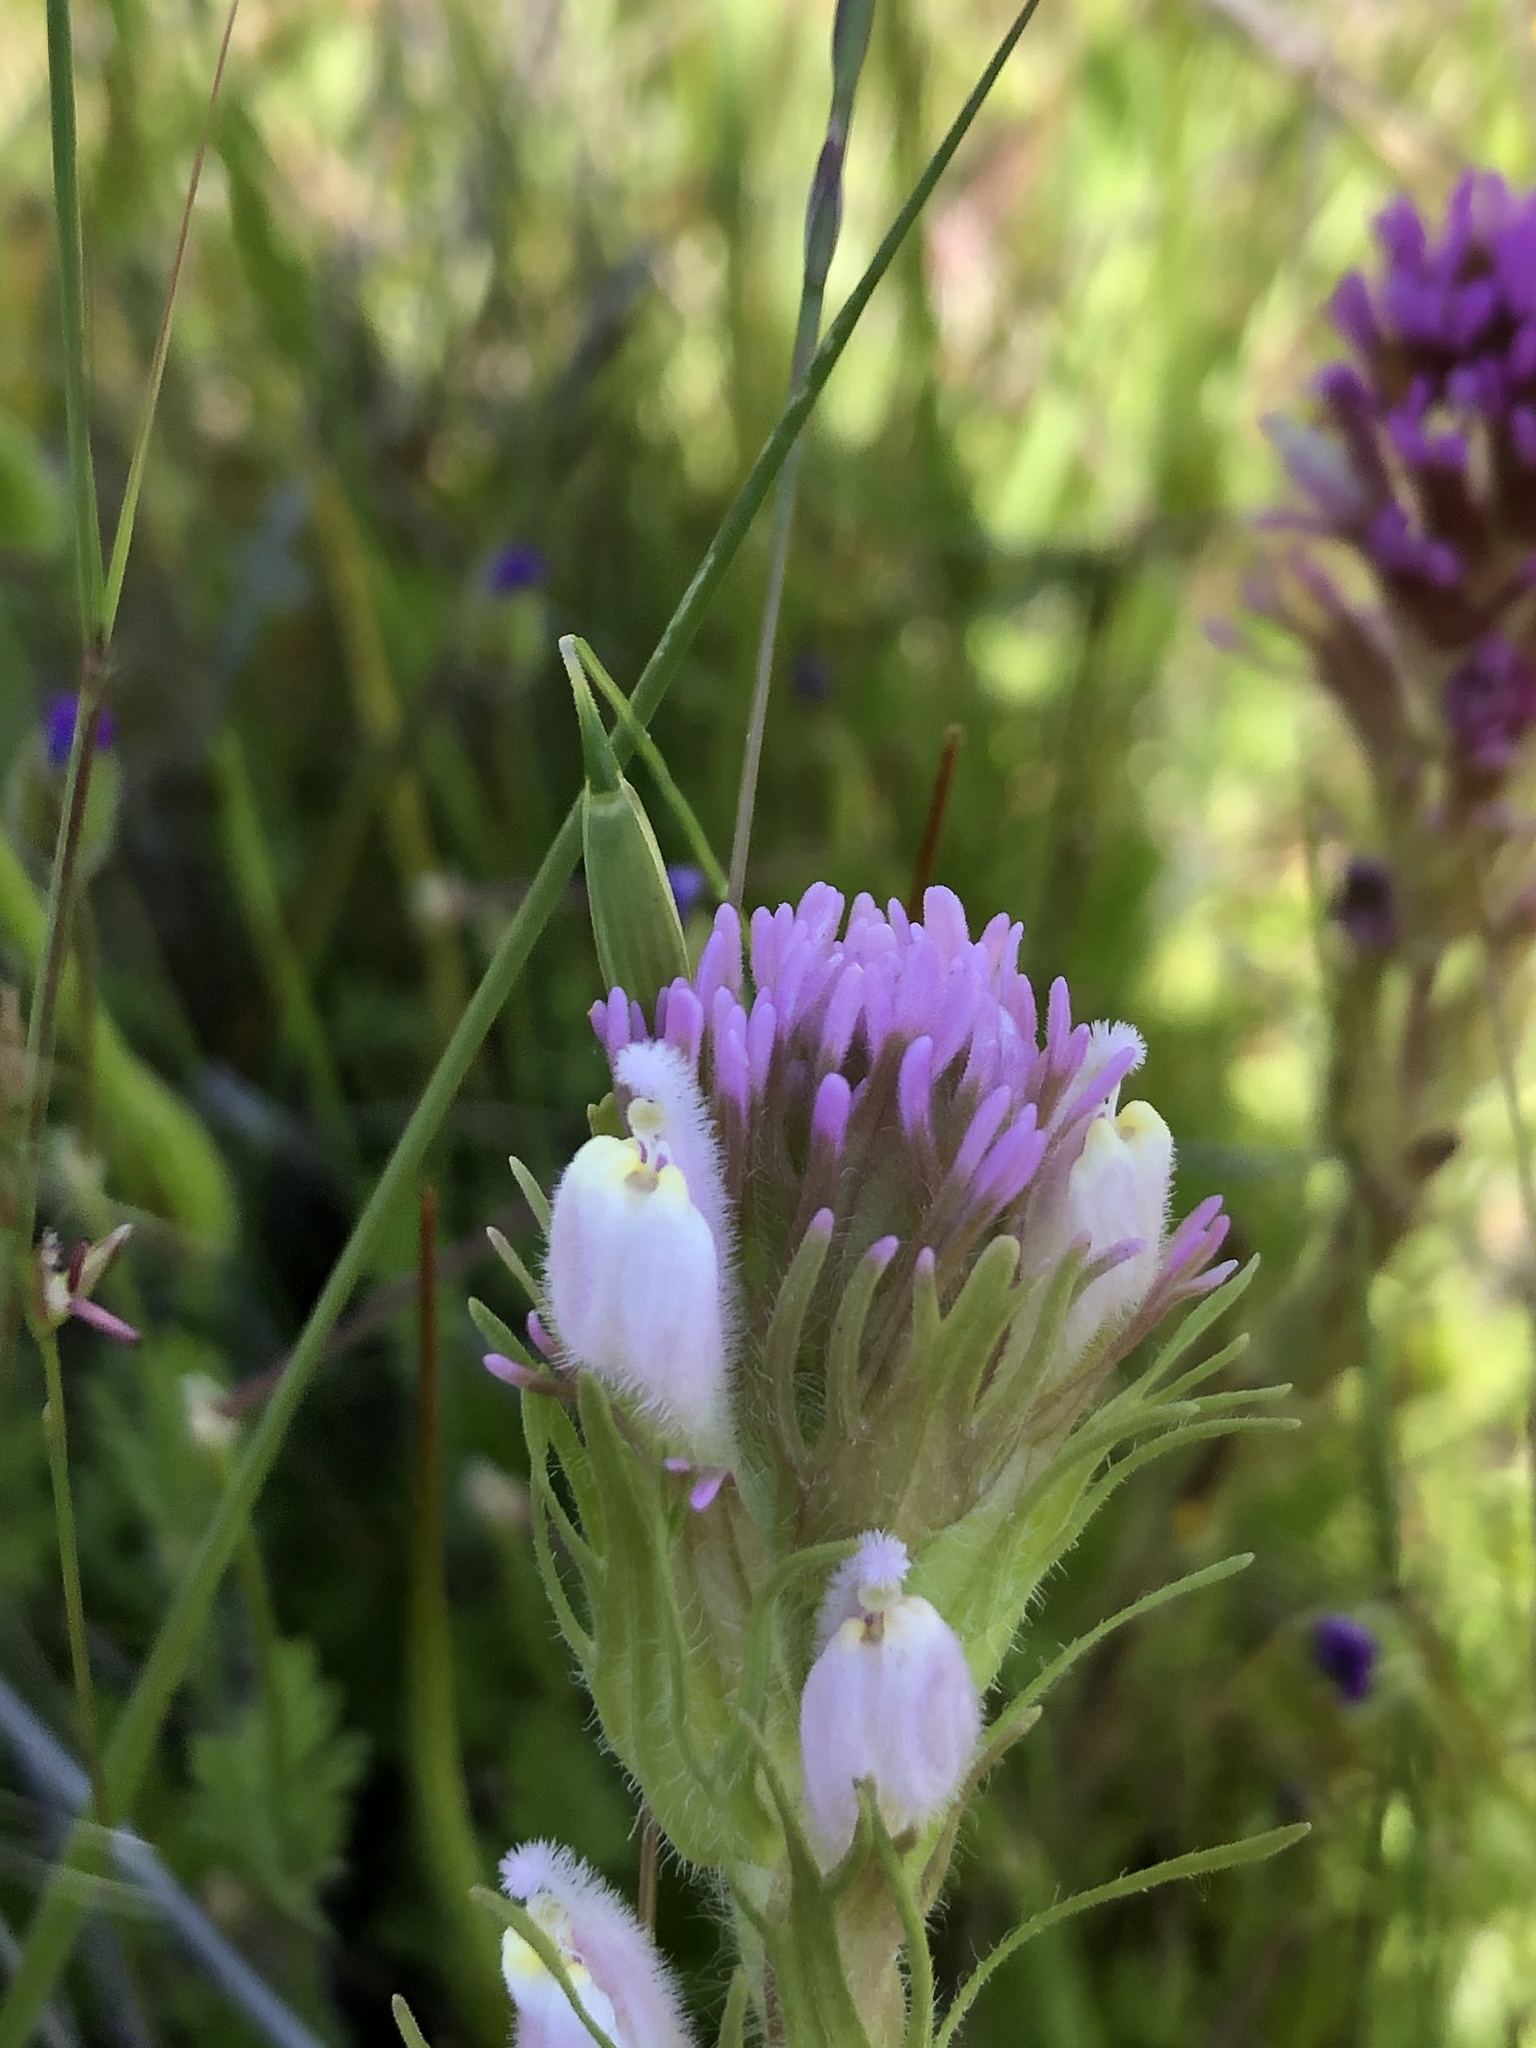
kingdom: Plantae
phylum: Tracheophyta
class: Magnoliopsida
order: Lamiales
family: Orobanchaceae
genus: Castilleja
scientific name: Castilleja exserta
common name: Purple owl-clover
